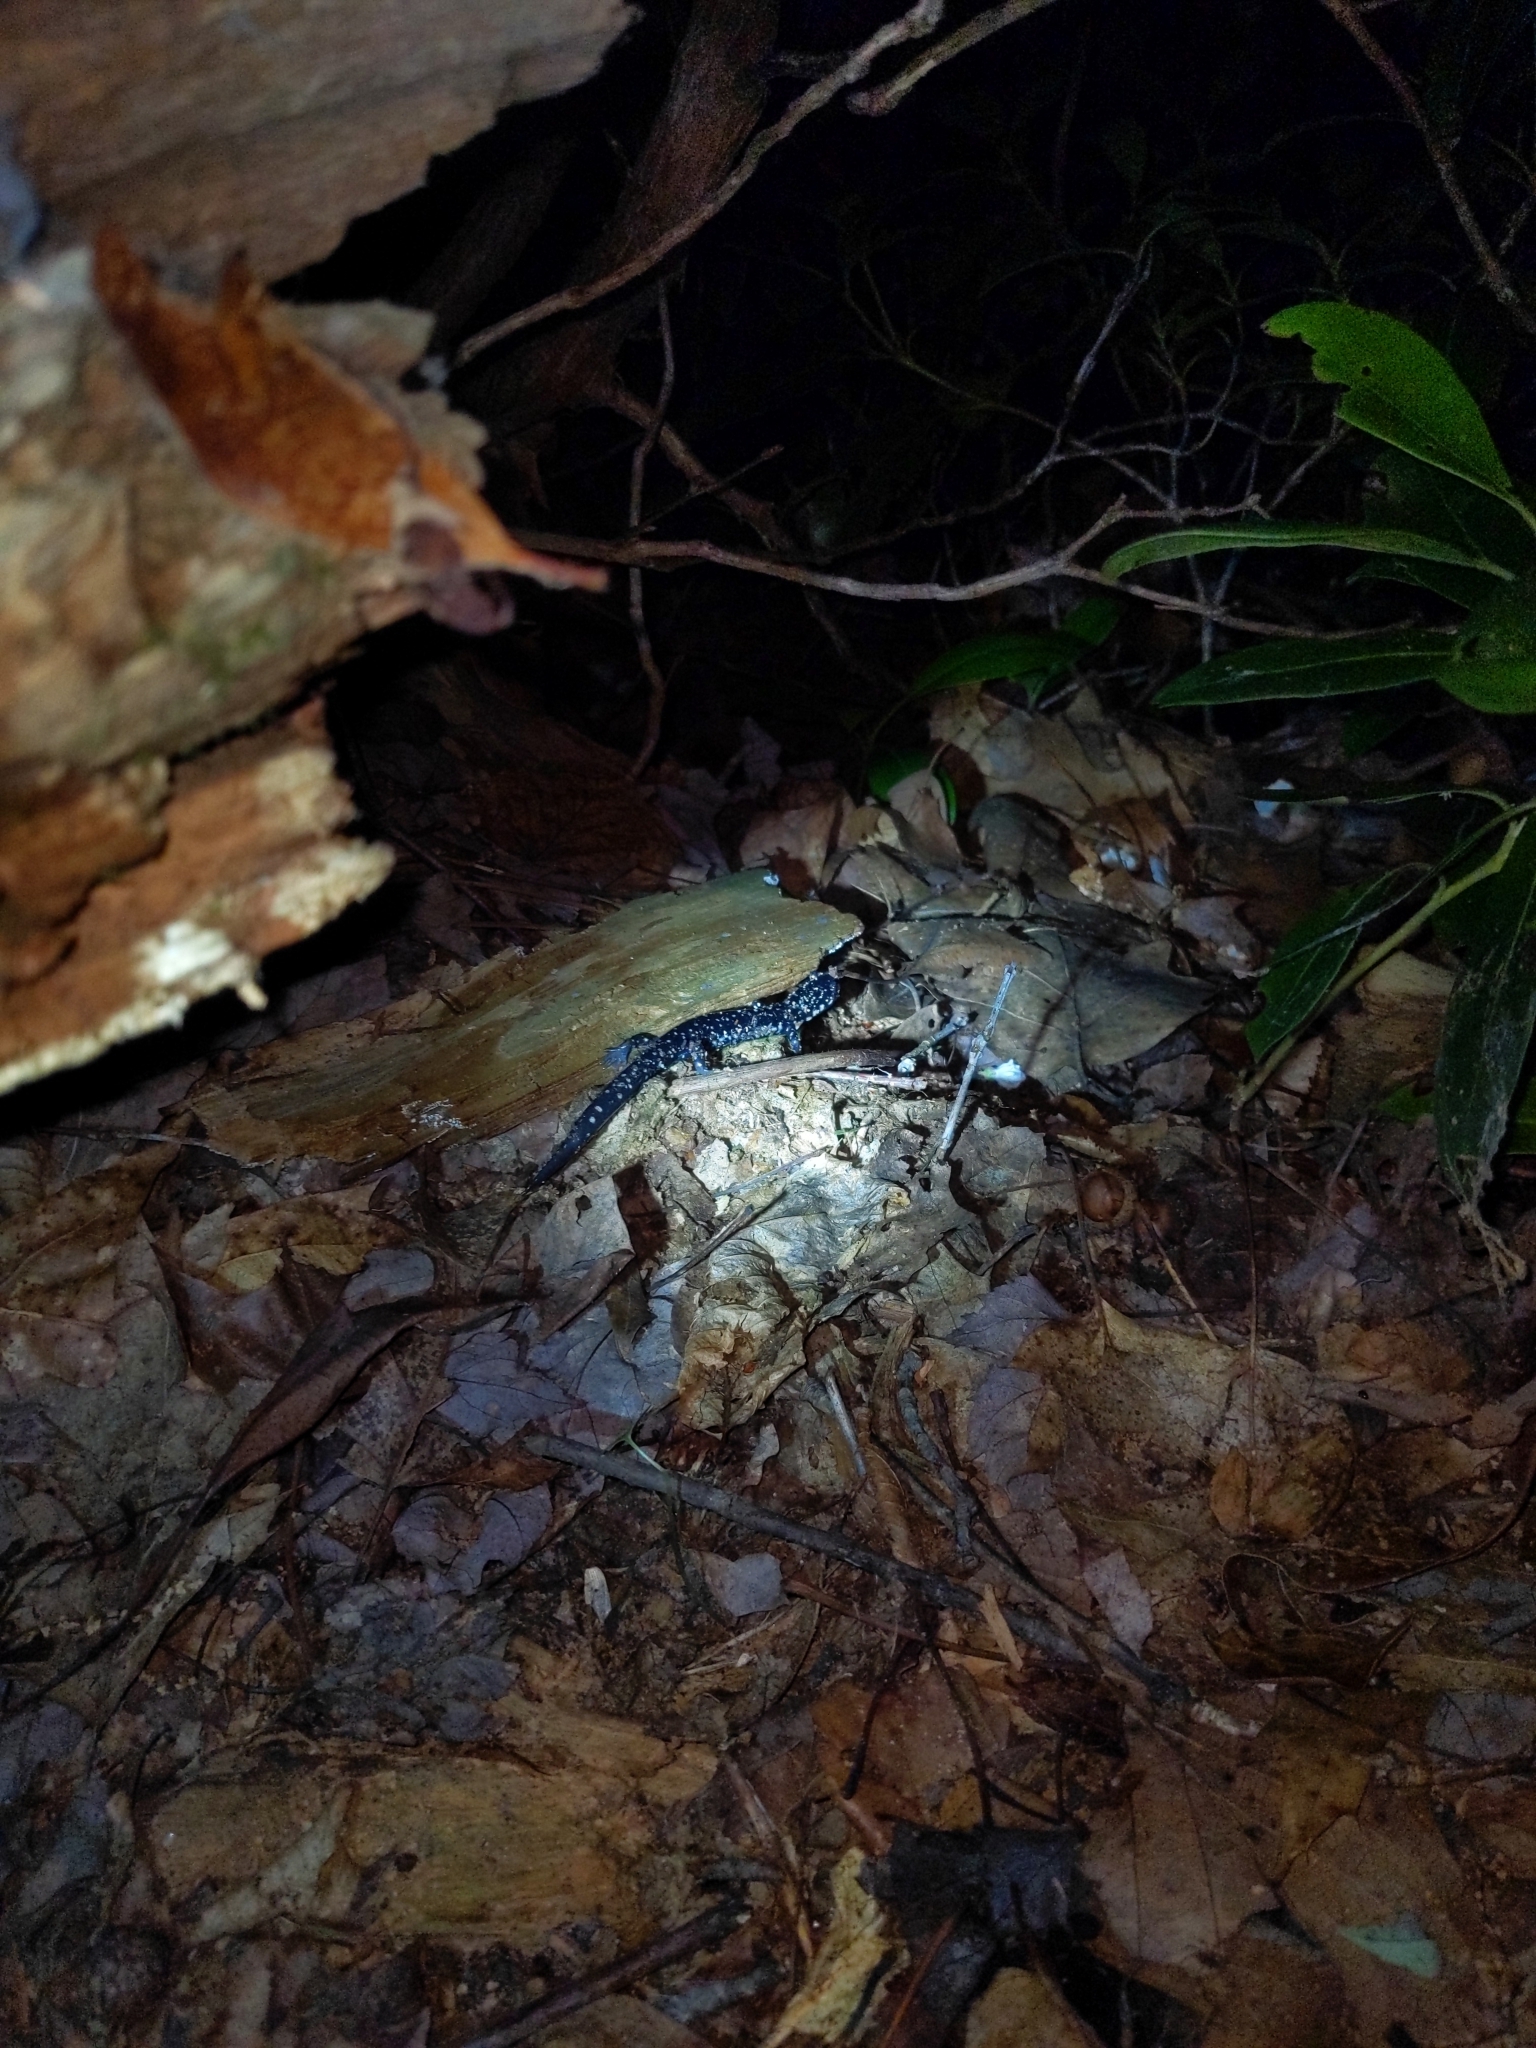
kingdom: Animalia
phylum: Chordata
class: Amphibia
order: Caudata
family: Plethodontidae
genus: Plethodon
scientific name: Plethodon glutinosus
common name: Northern slimy salamander
